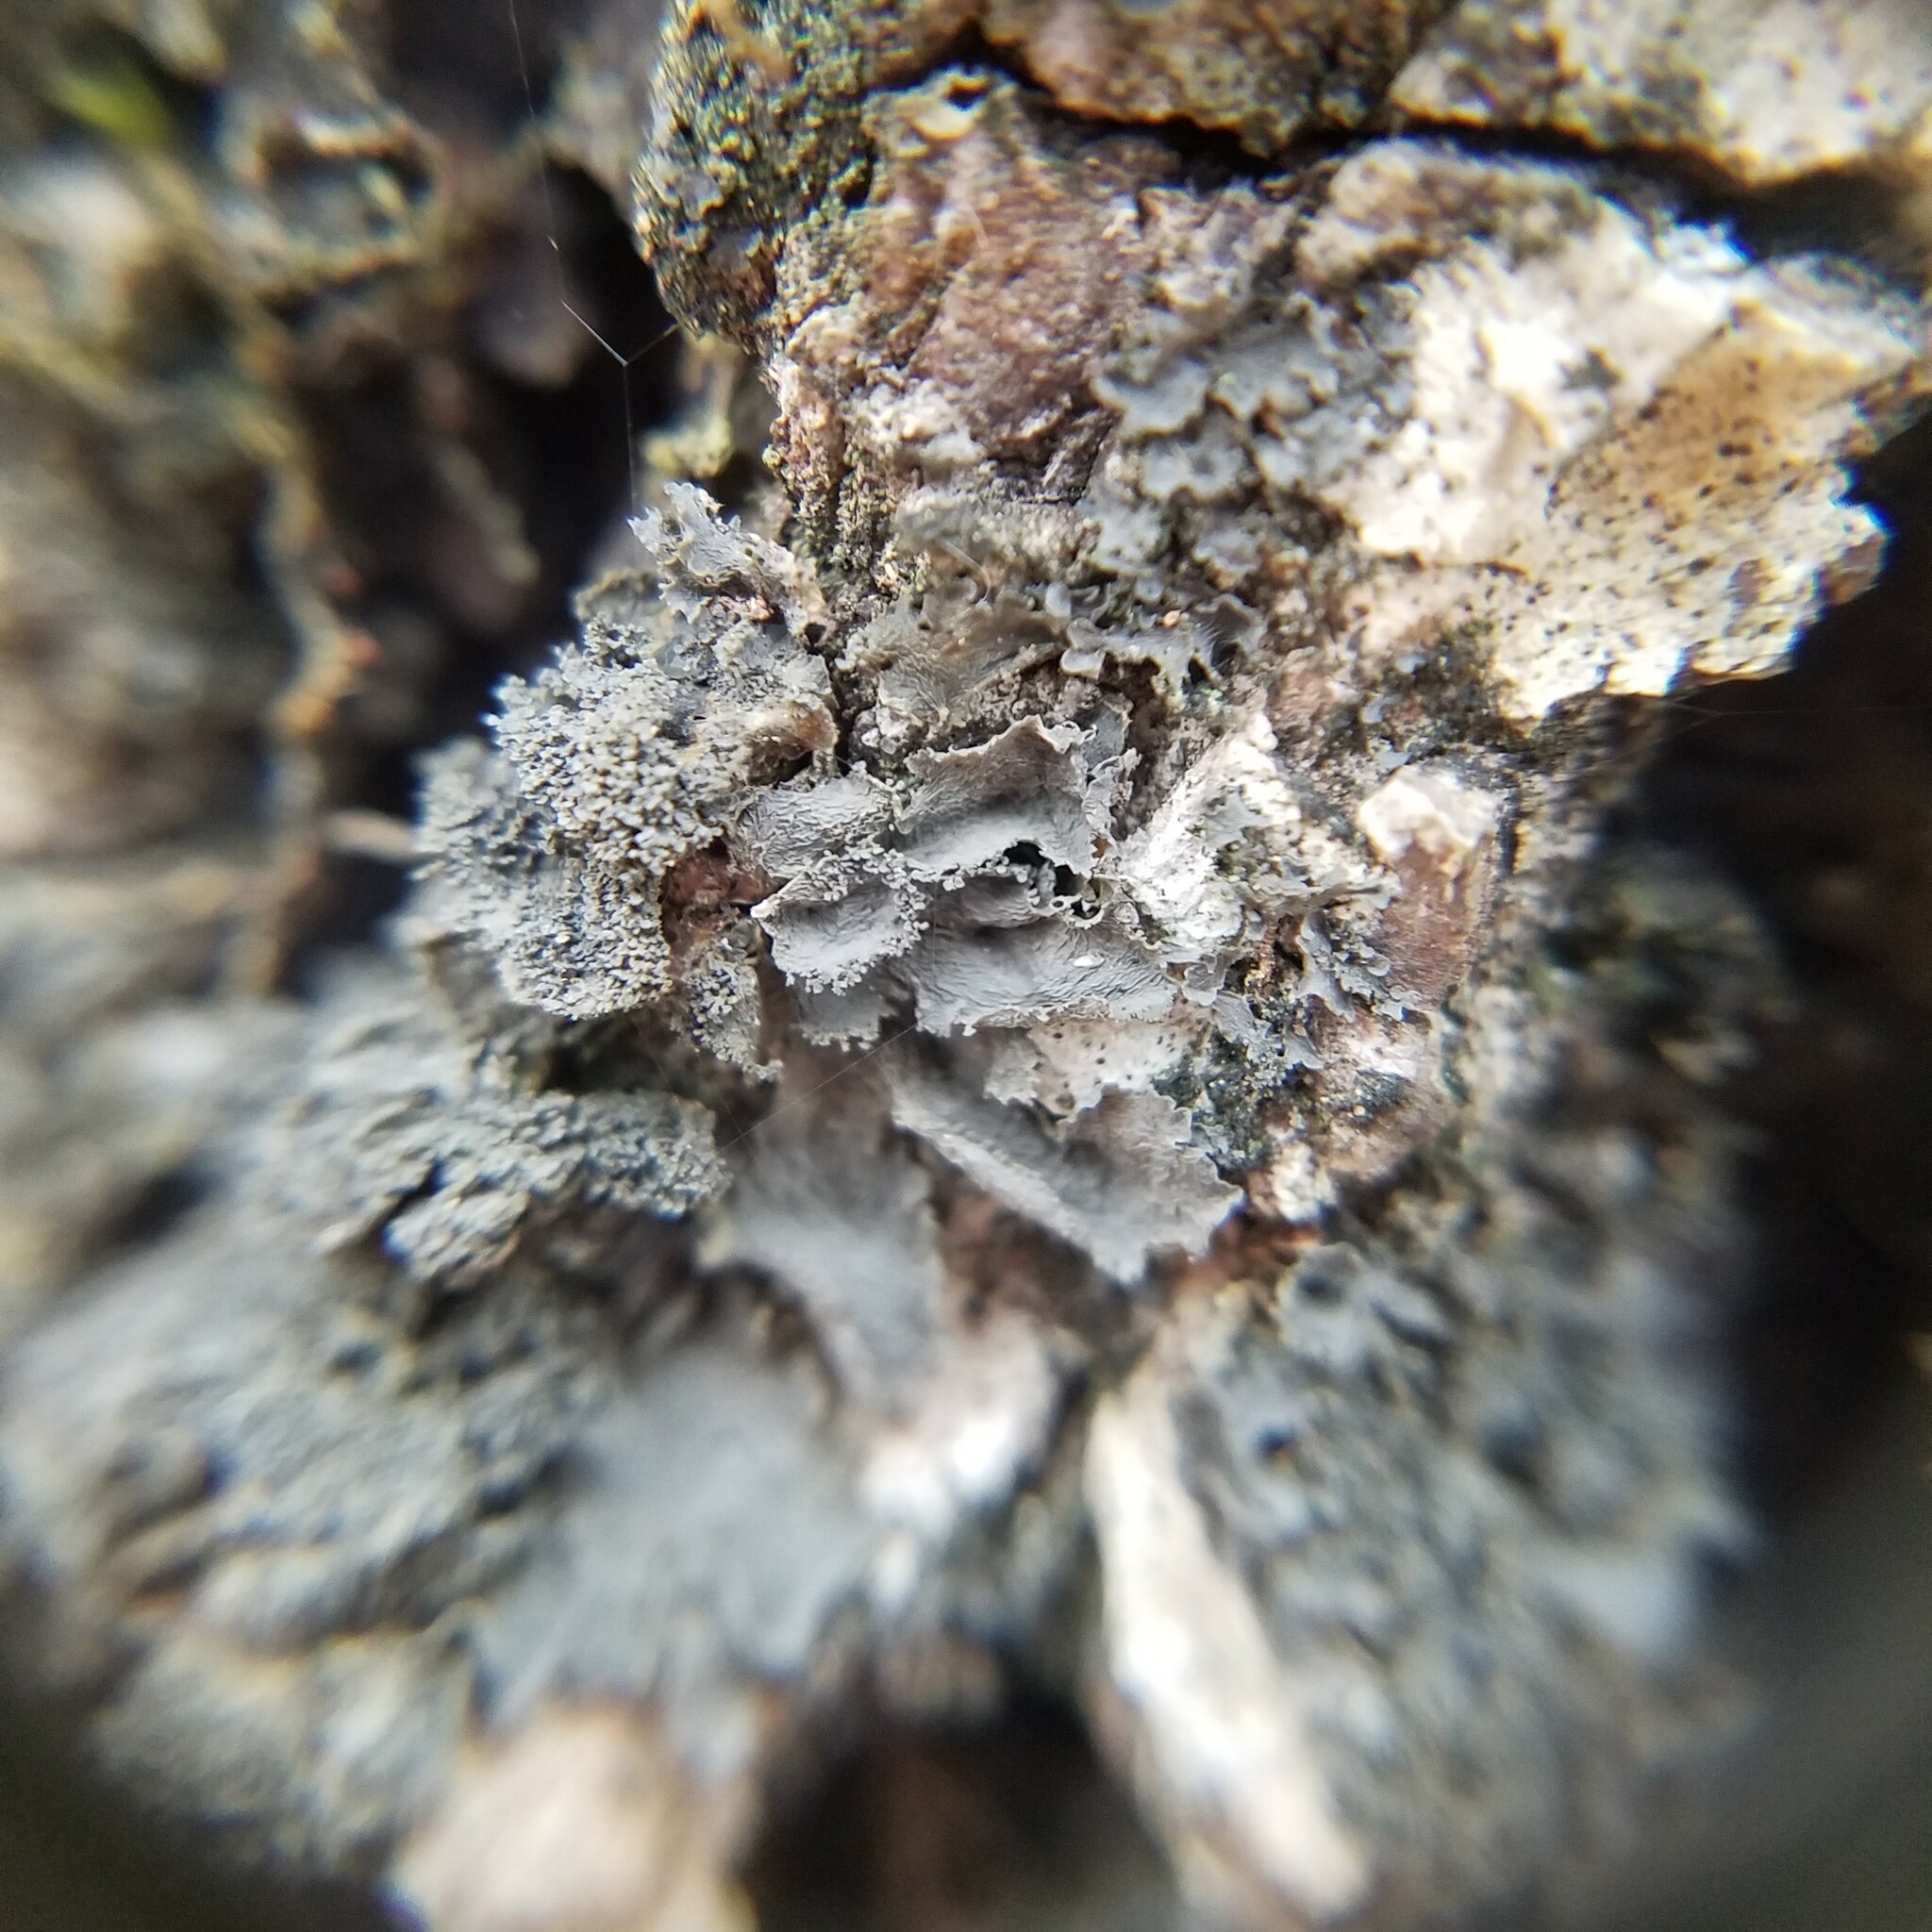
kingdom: Fungi
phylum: Ascomycota
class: Lecanoromycetes
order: Peltigerales
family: Collemataceae
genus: Leptogium
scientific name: Leptogium austroamericanum
